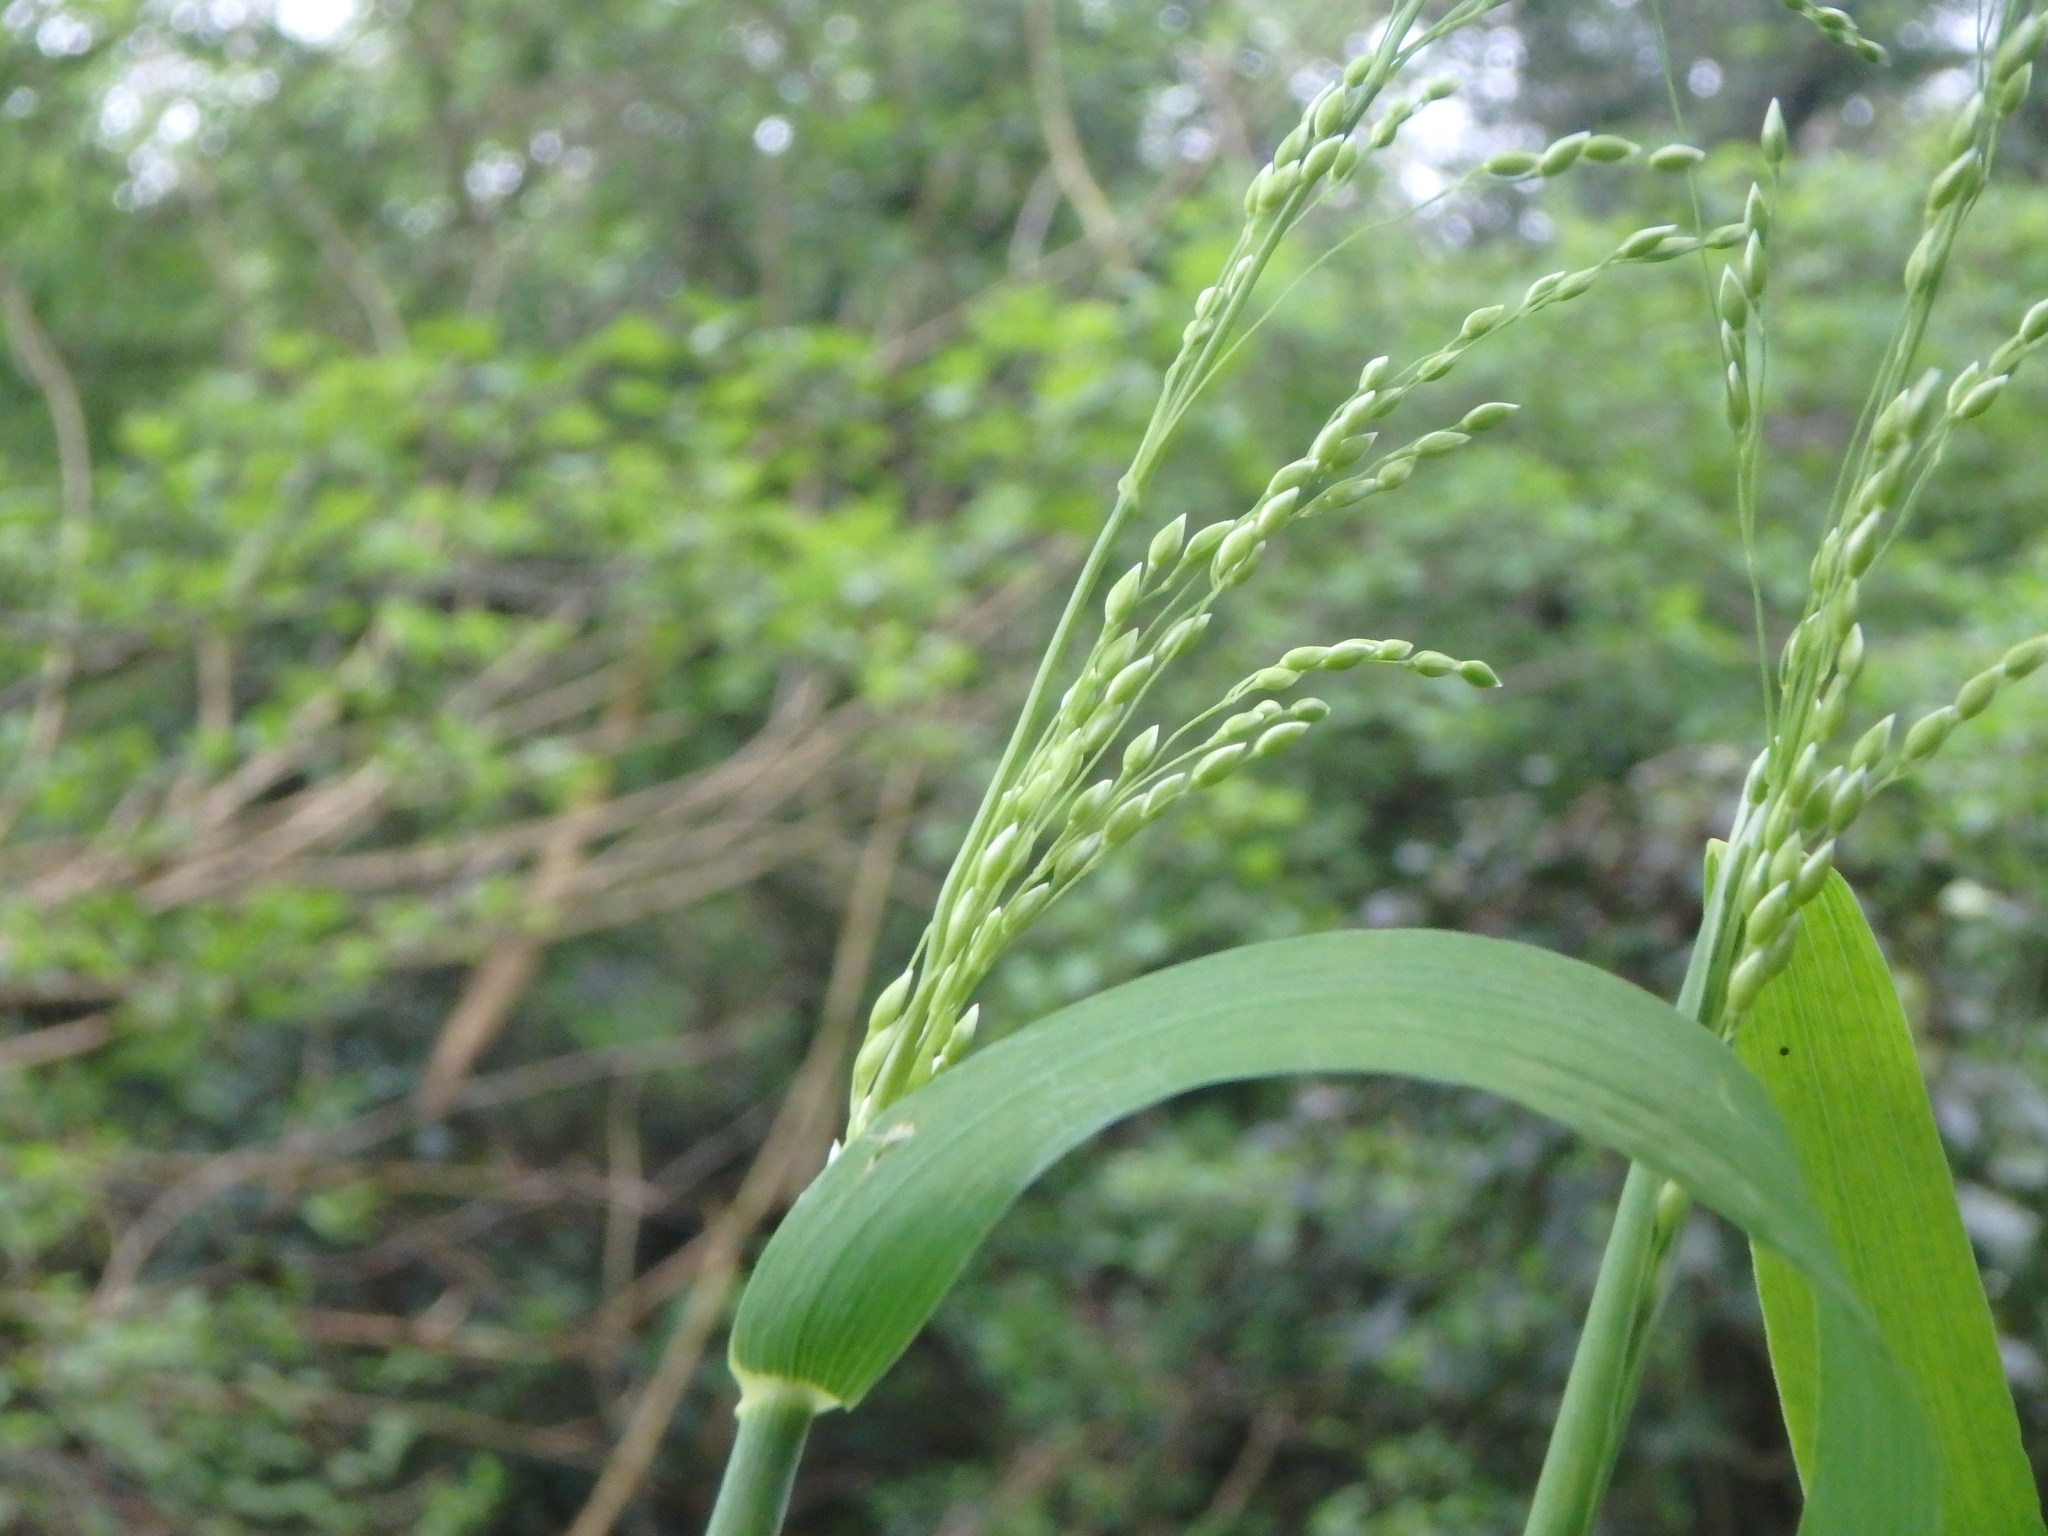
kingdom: Plantae
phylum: Tracheophyta
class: Liliopsida
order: Poales
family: Poaceae
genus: Milium
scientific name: Milium effusum
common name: Wood millet
